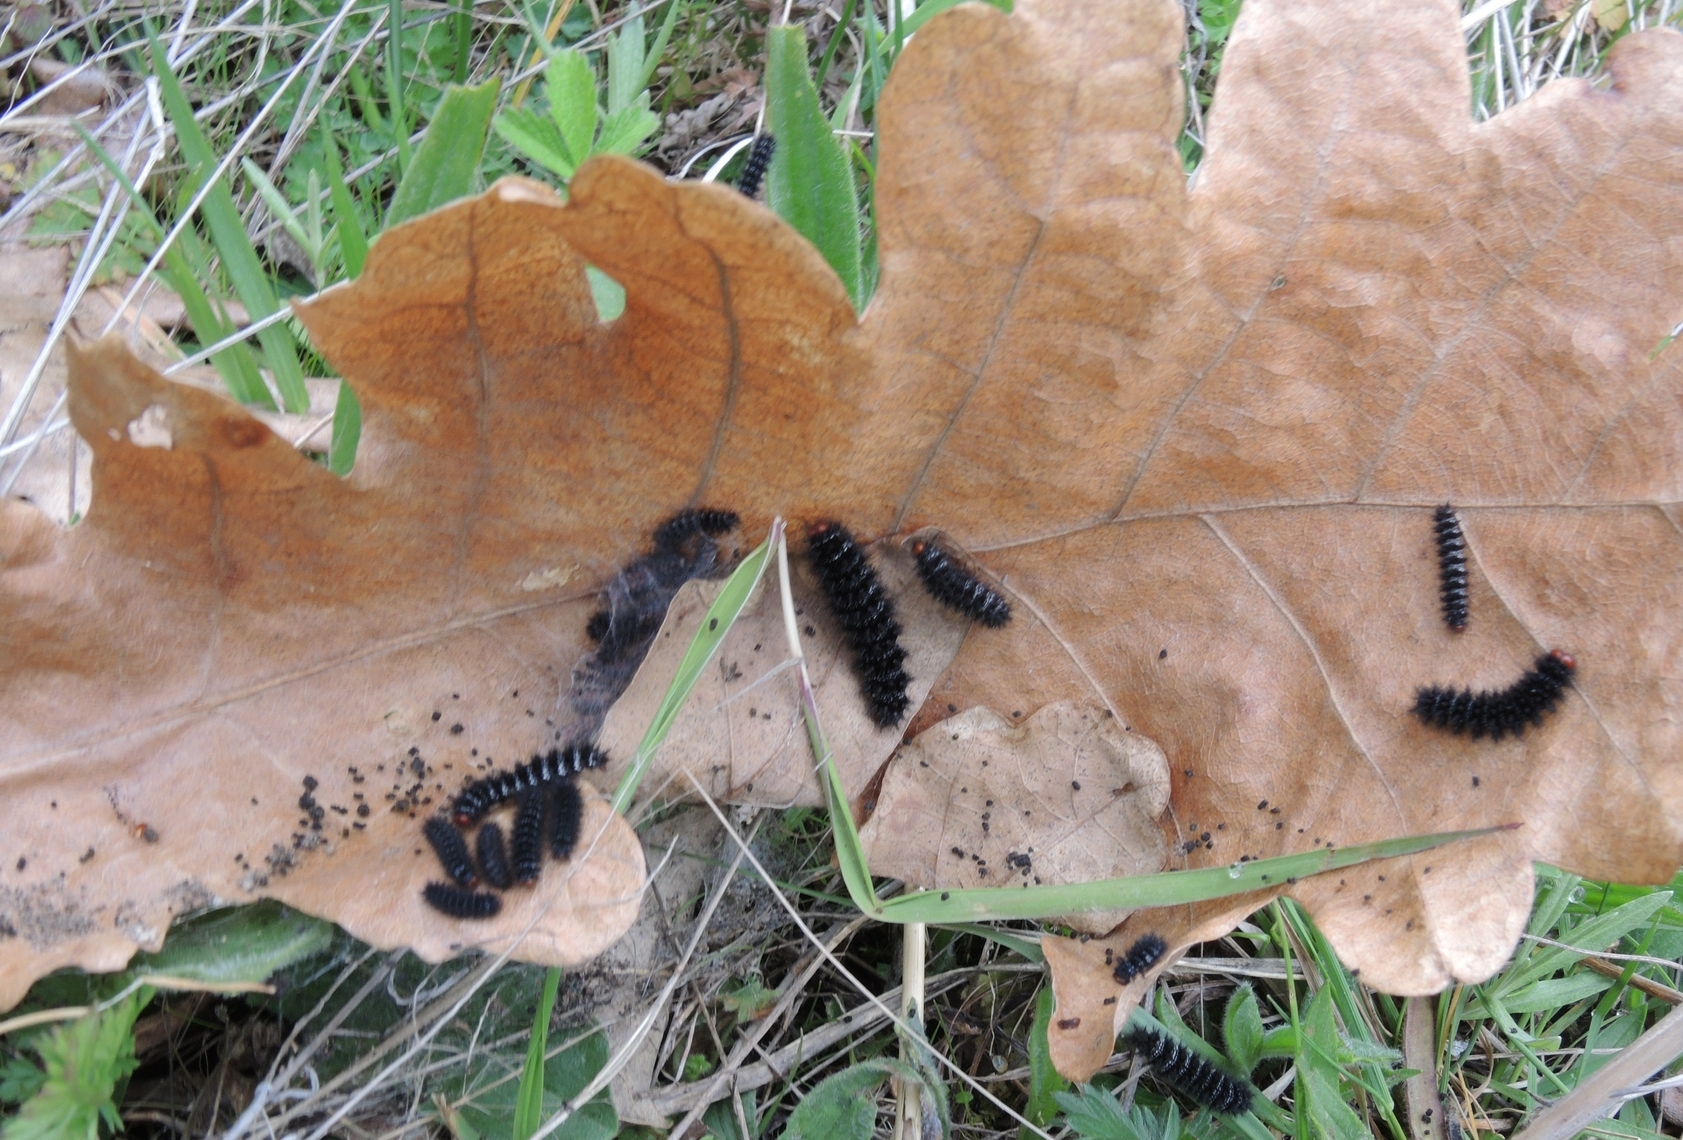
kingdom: Animalia
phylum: Arthropoda
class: Insecta
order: Lepidoptera
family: Nymphalidae
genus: Melitaea
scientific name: Melitaea cinxia
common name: Glanville fritillary
